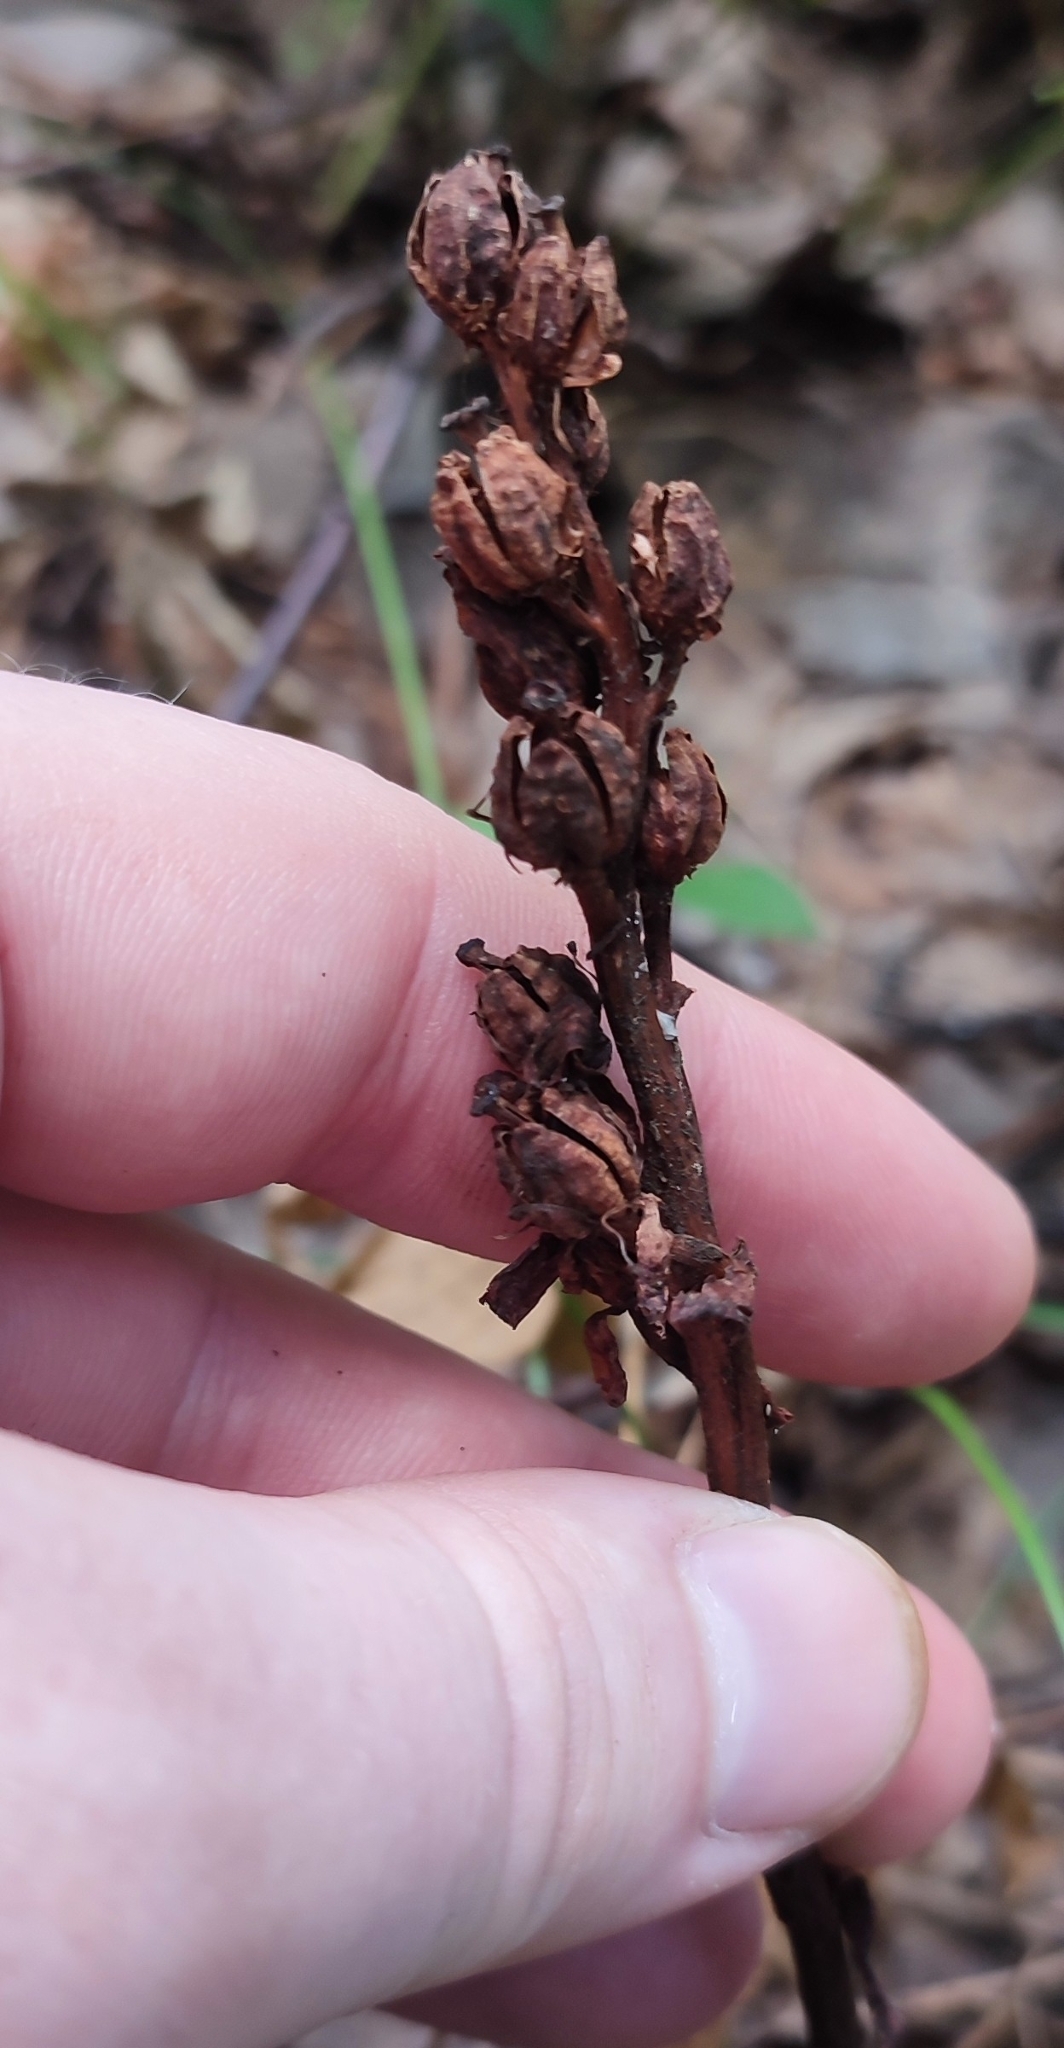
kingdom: Plantae
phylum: Tracheophyta
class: Magnoliopsida
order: Ericales
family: Ericaceae
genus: Hypopitys
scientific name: Hypopitys monotropa
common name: Yellow bird's-nest
